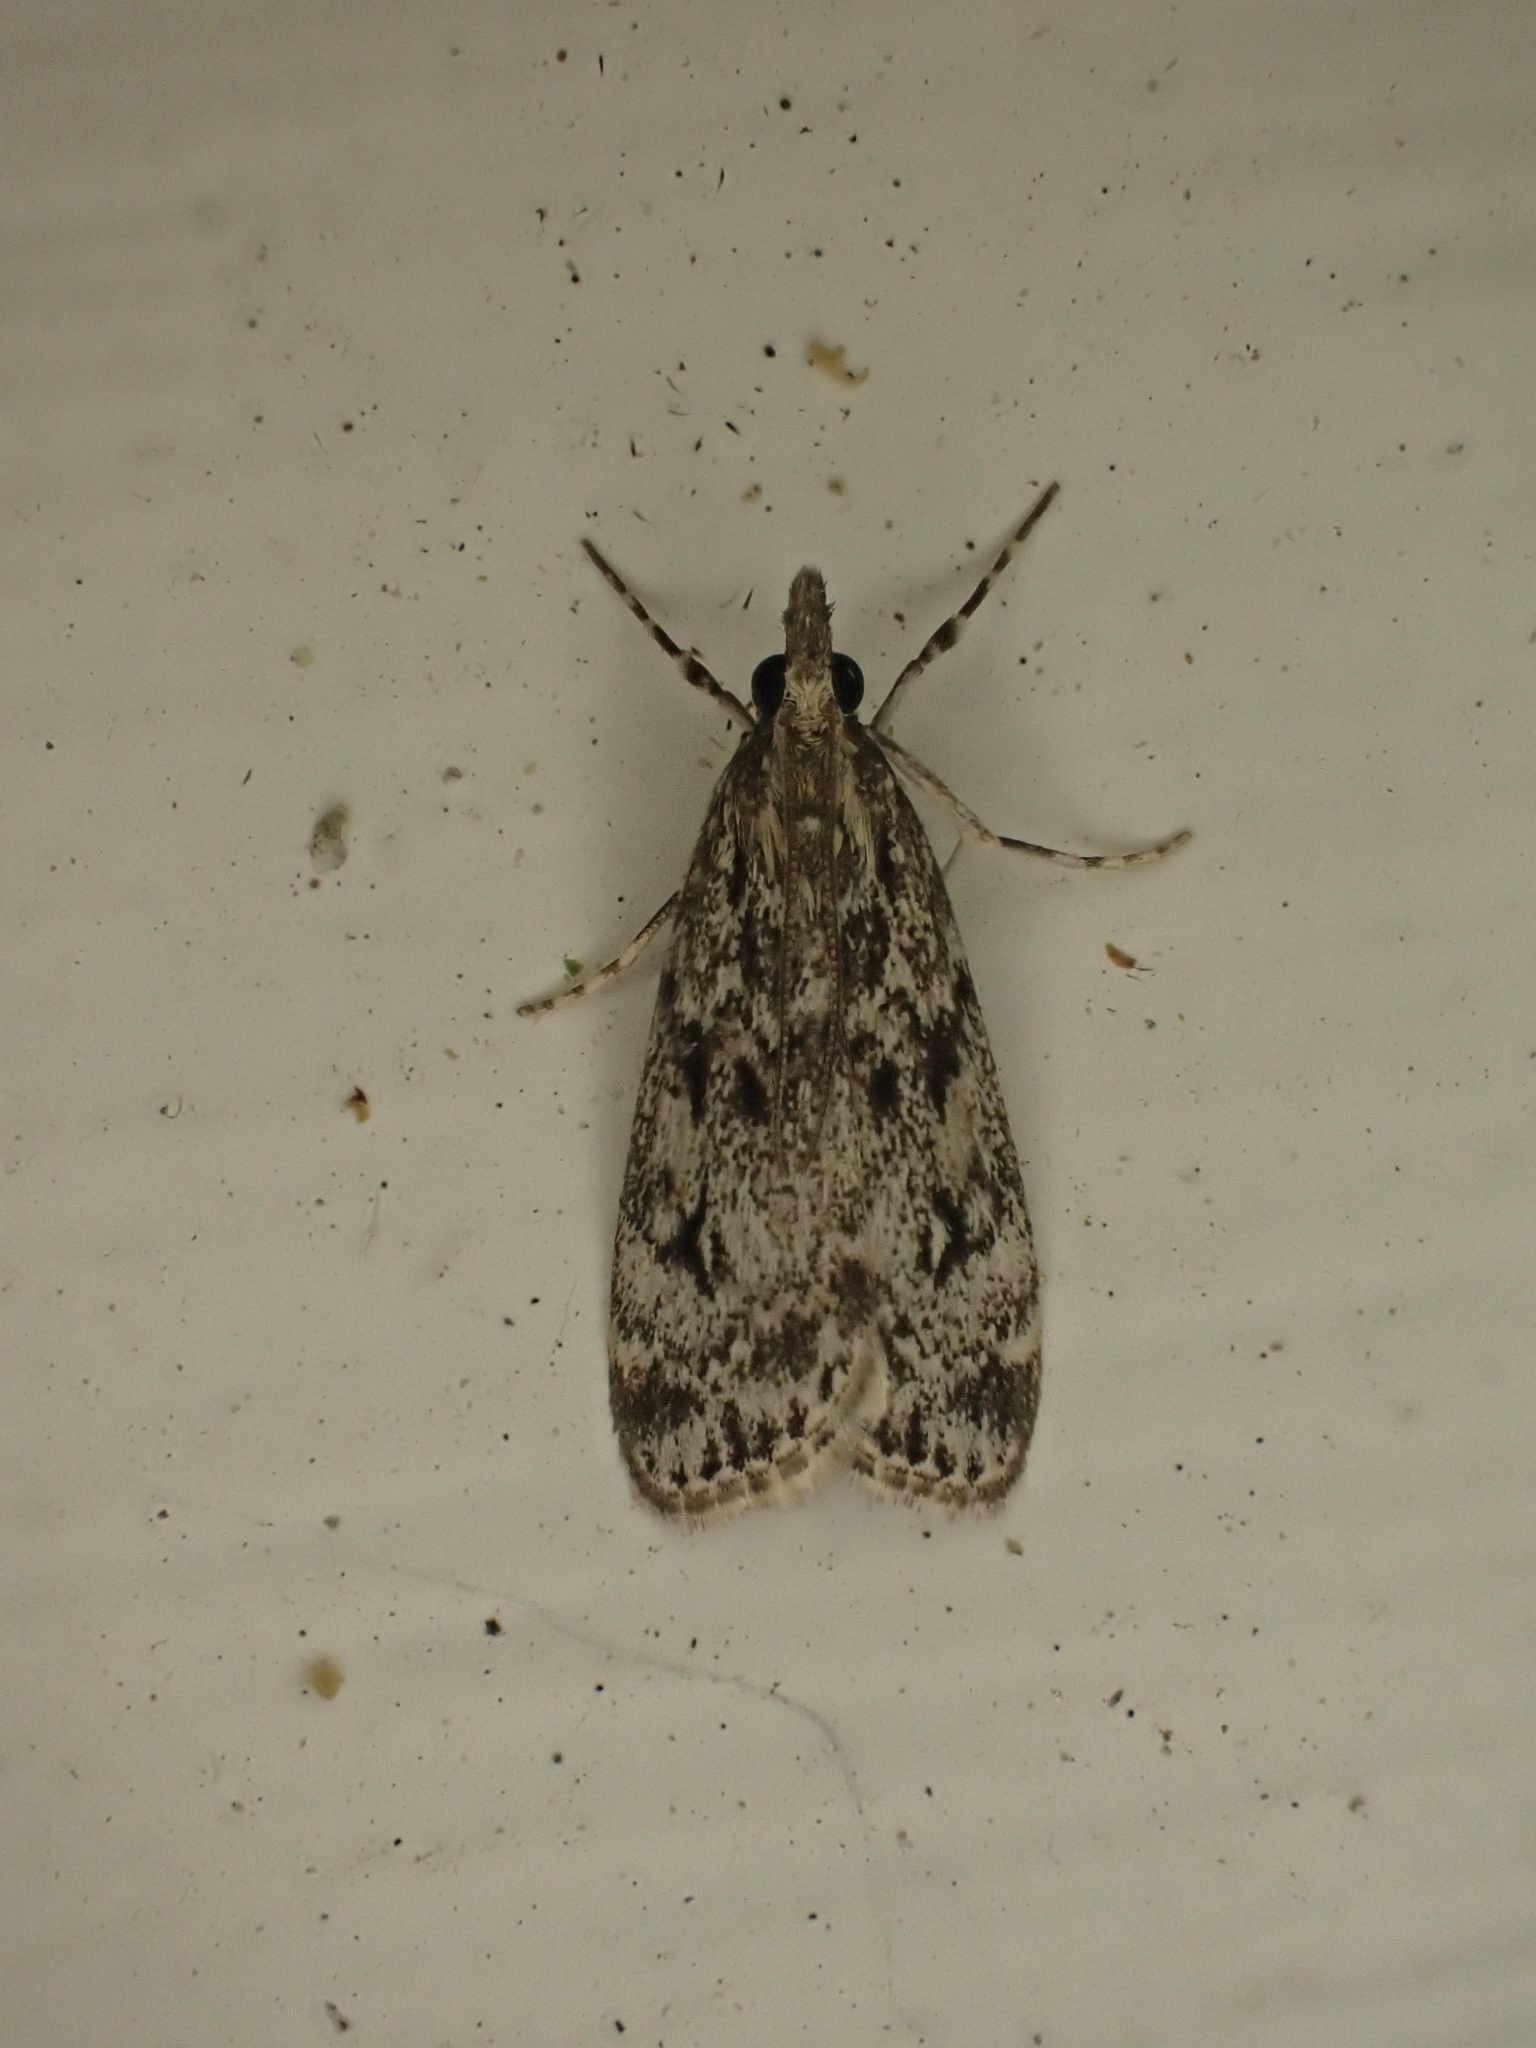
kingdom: Animalia
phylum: Arthropoda
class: Insecta
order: Lepidoptera
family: Crambidae
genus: Eudonia
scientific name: Eudonia truncicolella
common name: Ground-moss grey
